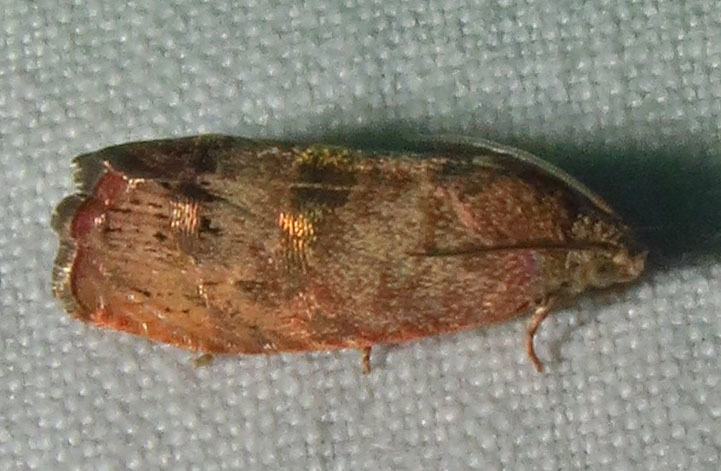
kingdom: Animalia
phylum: Arthropoda
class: Insecta
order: Lepidoptera
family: Tortricidae
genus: Cydia
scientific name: Cydia latiferreana
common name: Filbertworm moth
